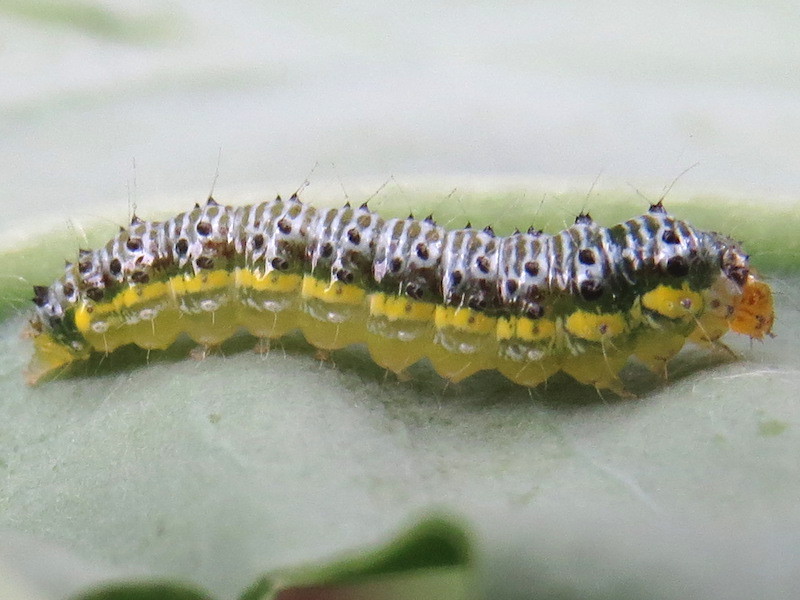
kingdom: Animalia
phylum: Arthropoda
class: Insecta
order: Lepidoptera
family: Crambidae
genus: Evergestis
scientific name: Evergestis rimosalis
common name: Cross-striped cabbageworm moth
